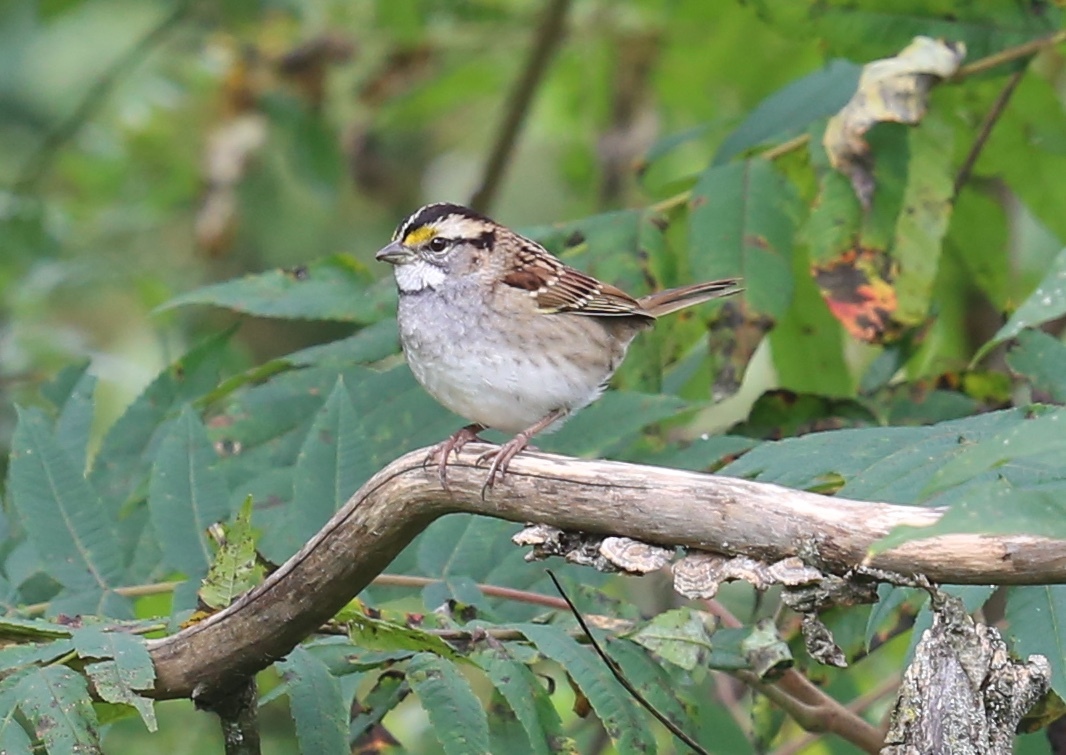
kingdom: Animalia
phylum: Chordata
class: Aves
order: Passeriformes
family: Passerellidae
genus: Zonotrichia
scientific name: Zonotrichia albicollis
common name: White-throated sparrow
